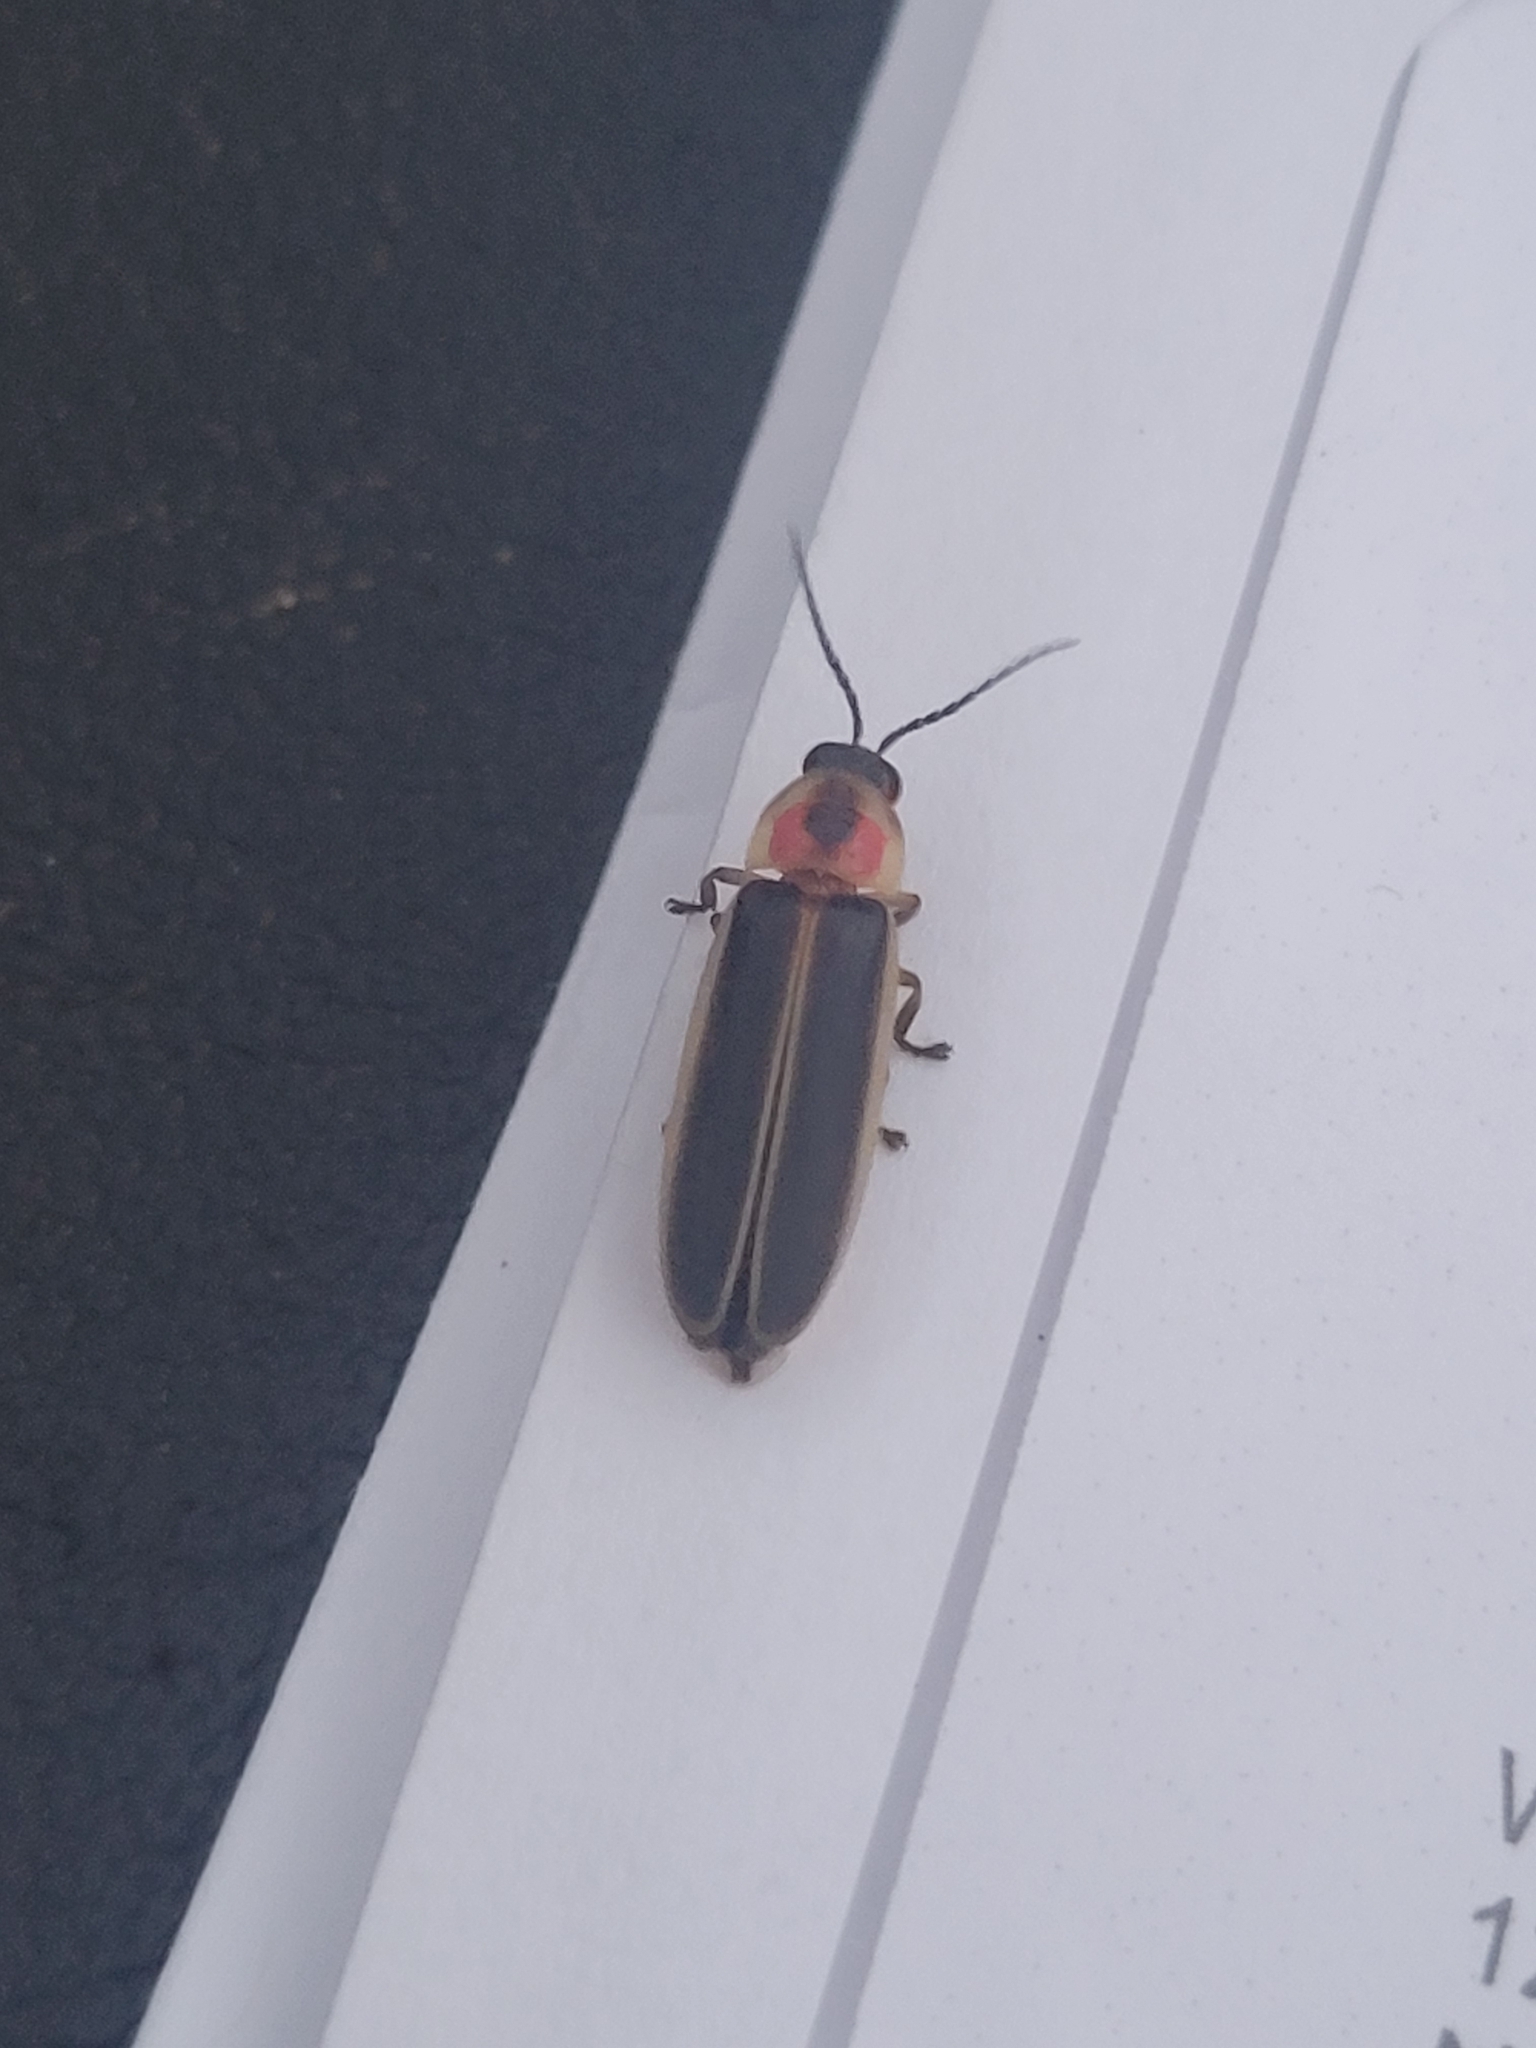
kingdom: Animalia
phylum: Arthropoda
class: Insecta
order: Coleoptera
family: Lampyridae
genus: Photinus
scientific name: Photinus pyralis
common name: Big dipper firefly
